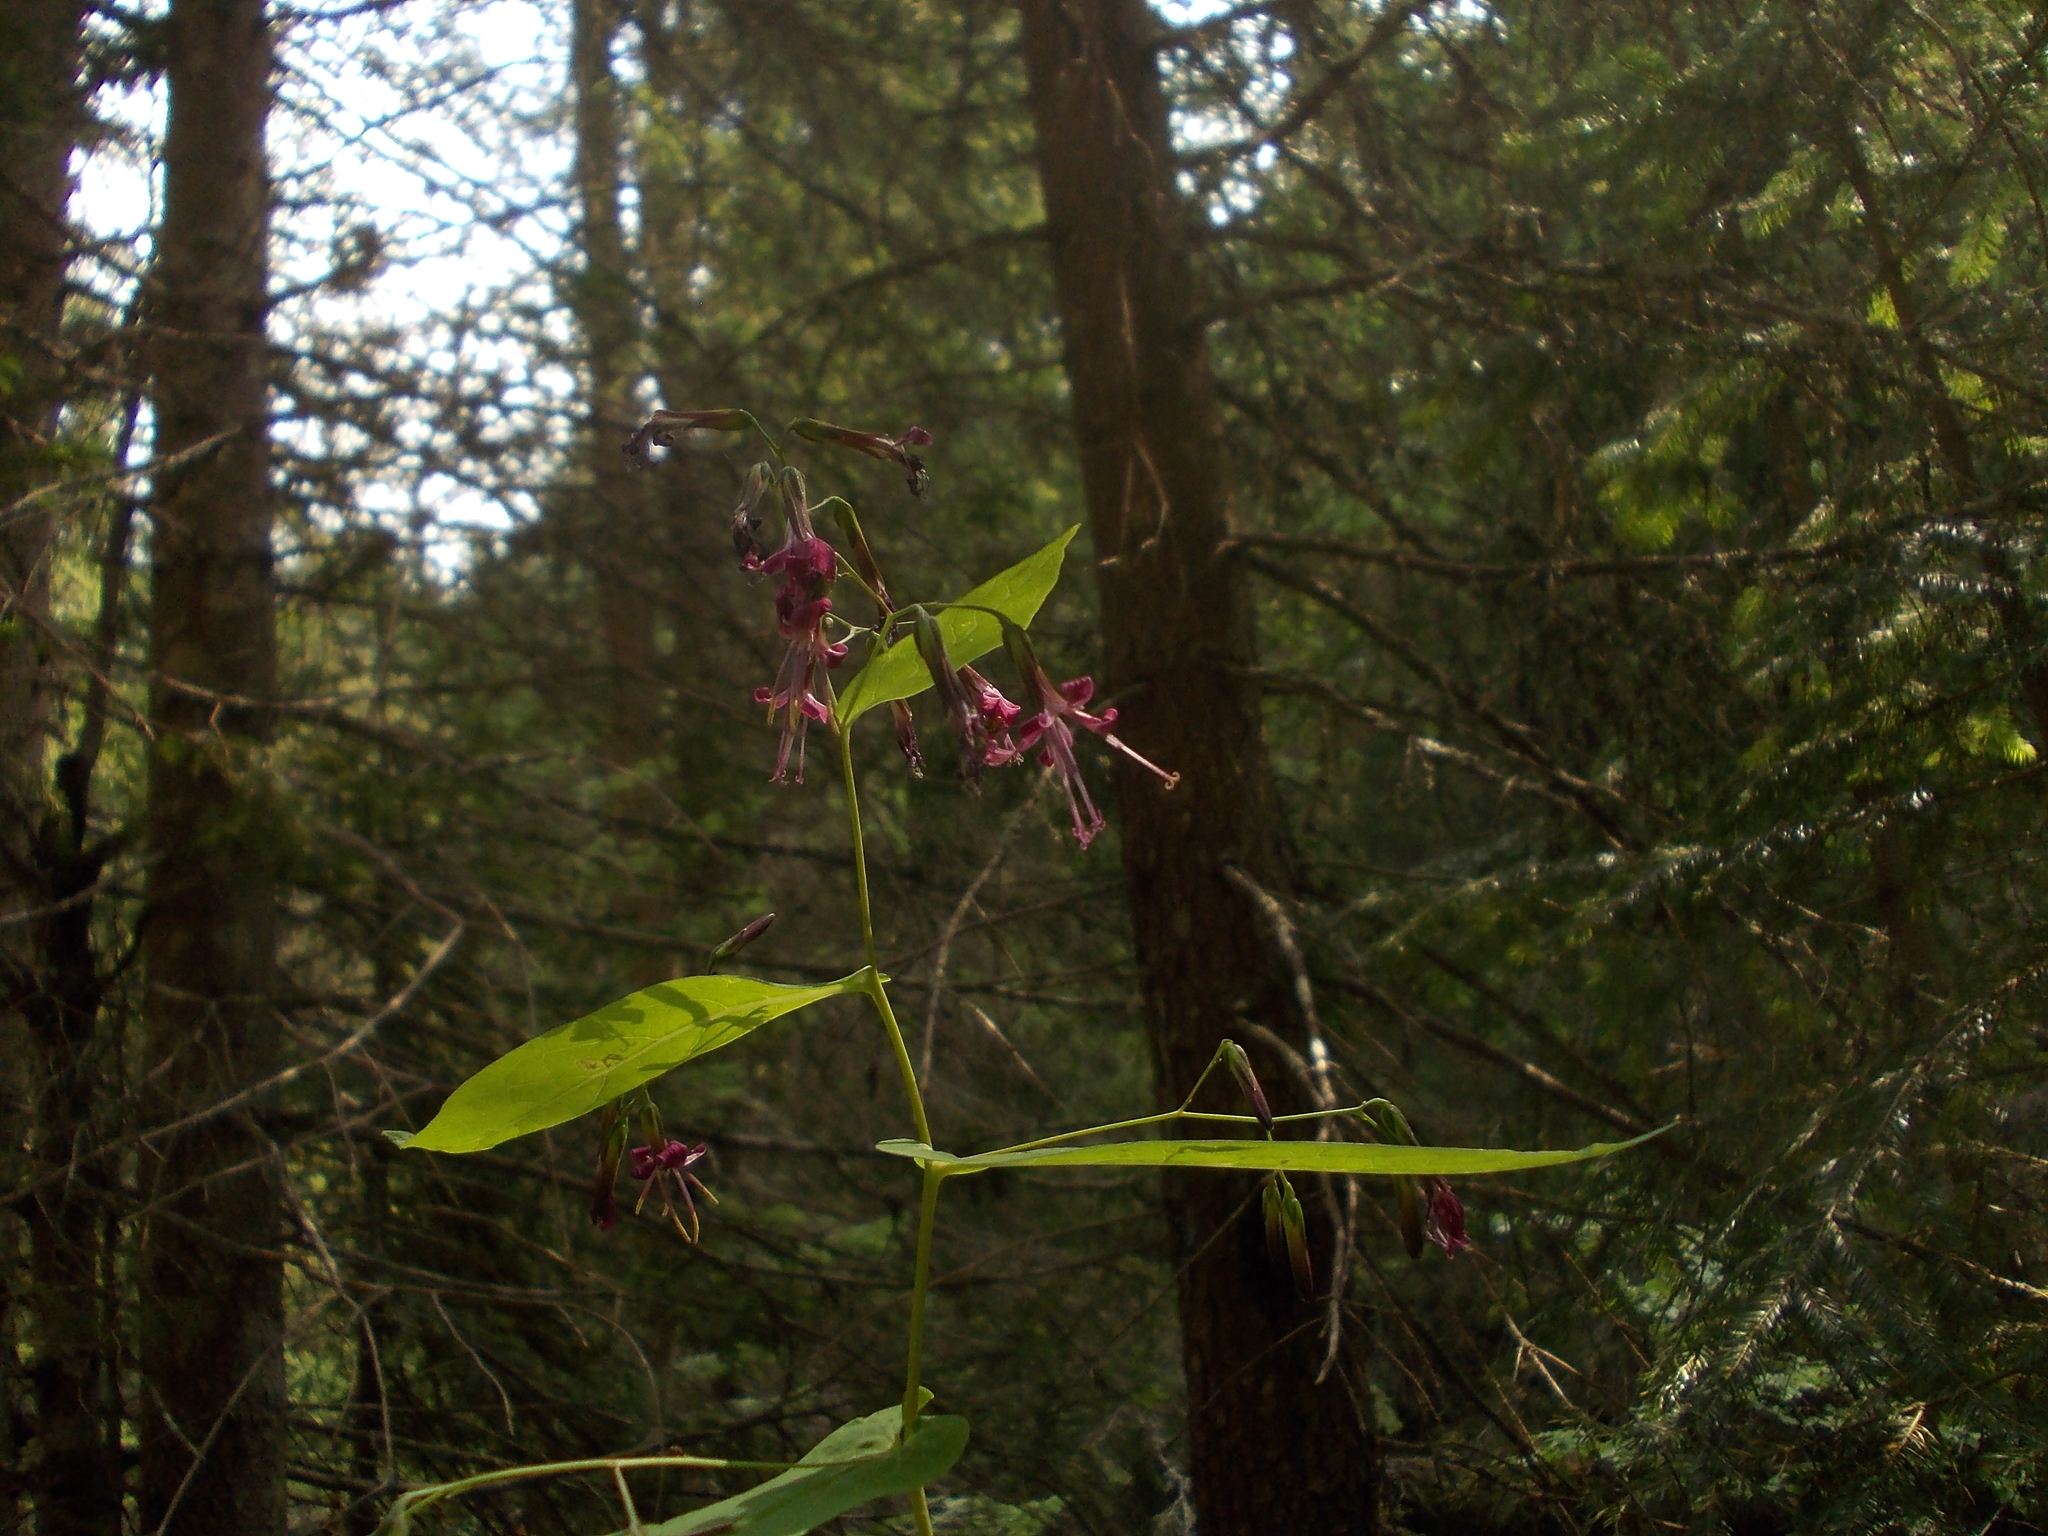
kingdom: Plantae
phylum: Tracheophyta
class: Magnoliopsida
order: Asterales
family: Asteraceae
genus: Prenanthes
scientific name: Prenanthes purpurea
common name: Purple lettuce
